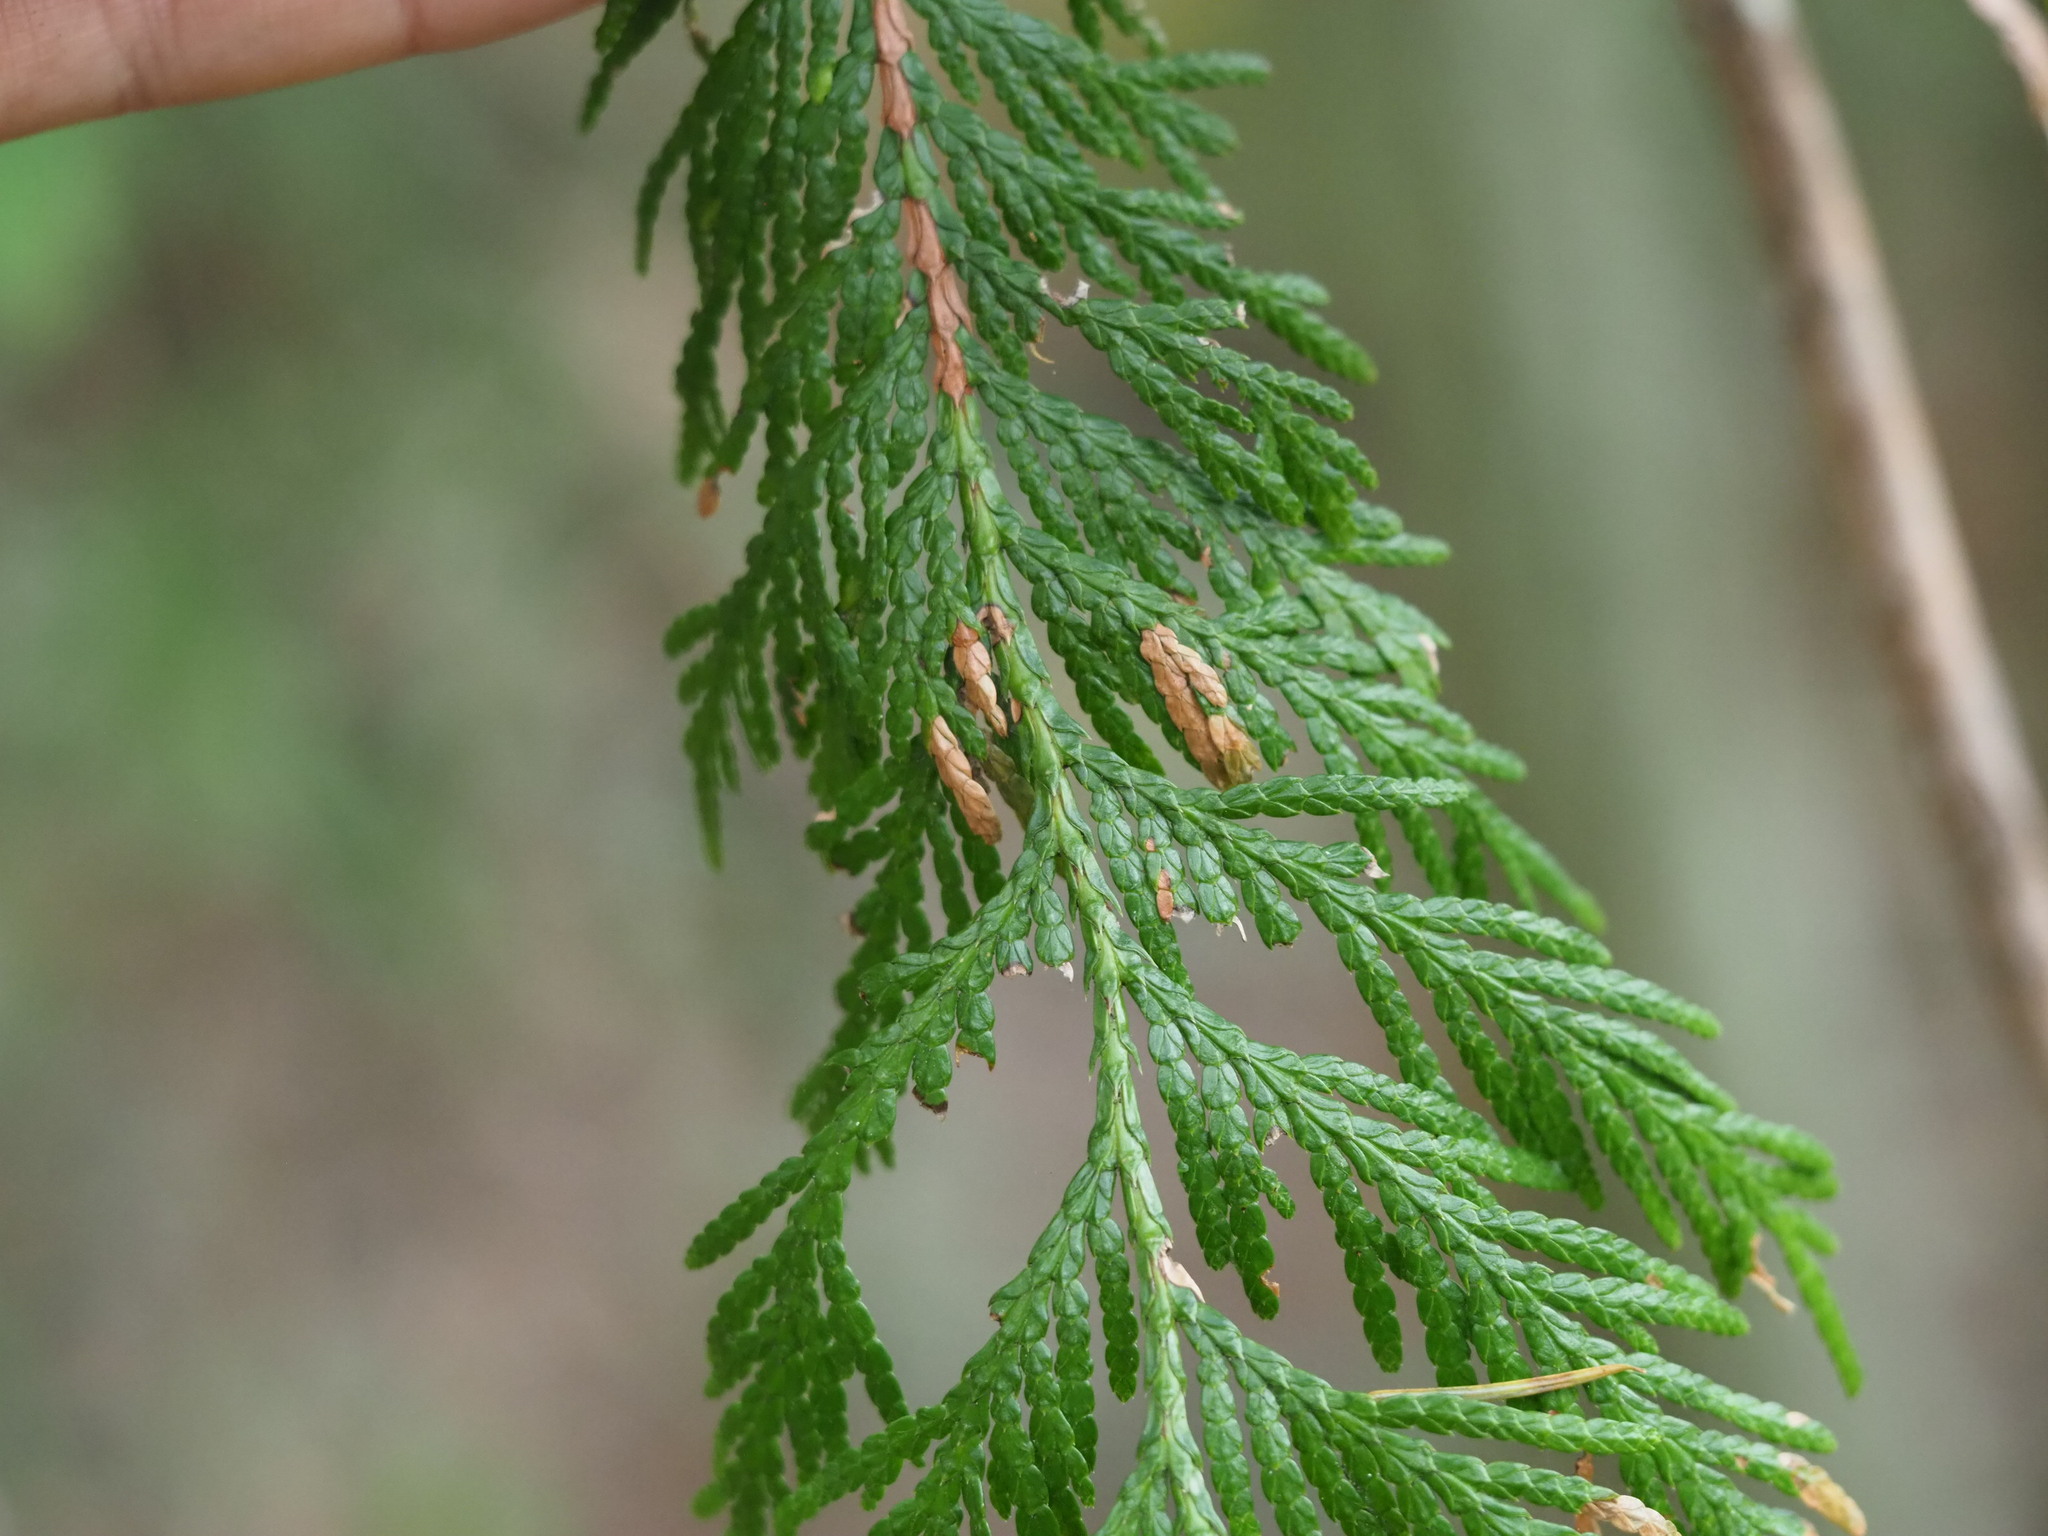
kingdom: Plantae
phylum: Tracheophyta
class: Pinopsida
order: Pinales
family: Cupressaceae
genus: Thuja
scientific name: Thuja plicata
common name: Western red-cedar
